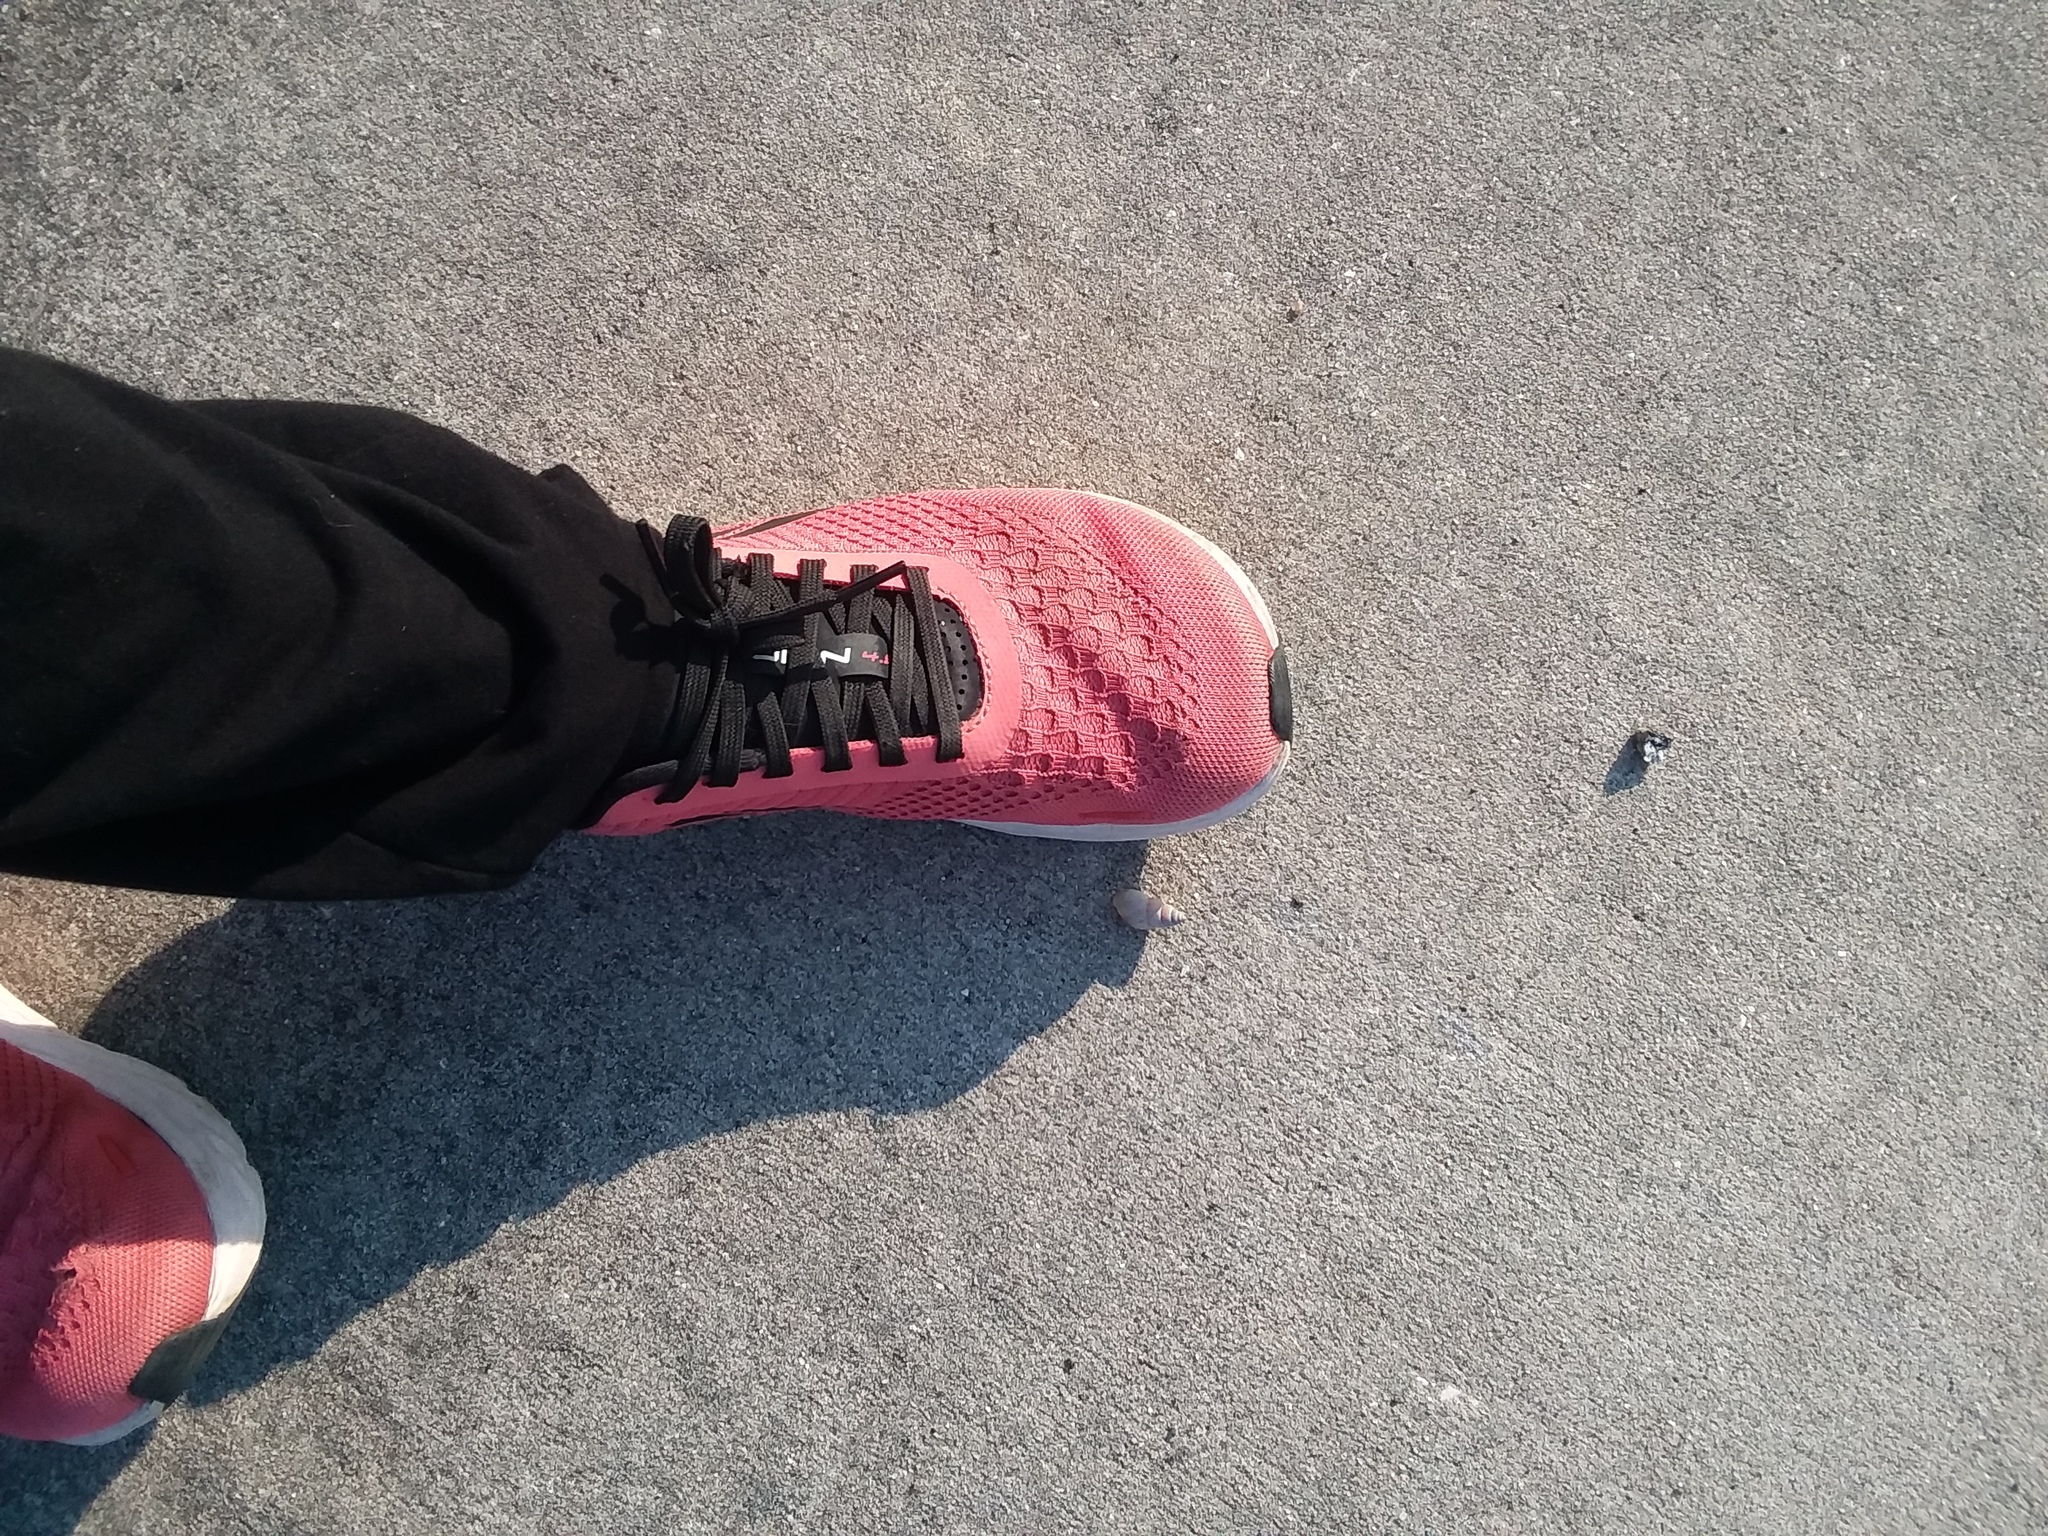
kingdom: Animalia
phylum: Mollusca
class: Gastropoda
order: Stylommatophora
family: Bulimulidae
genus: Bulimulus
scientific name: Bulimulus bonariensis
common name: Snail
